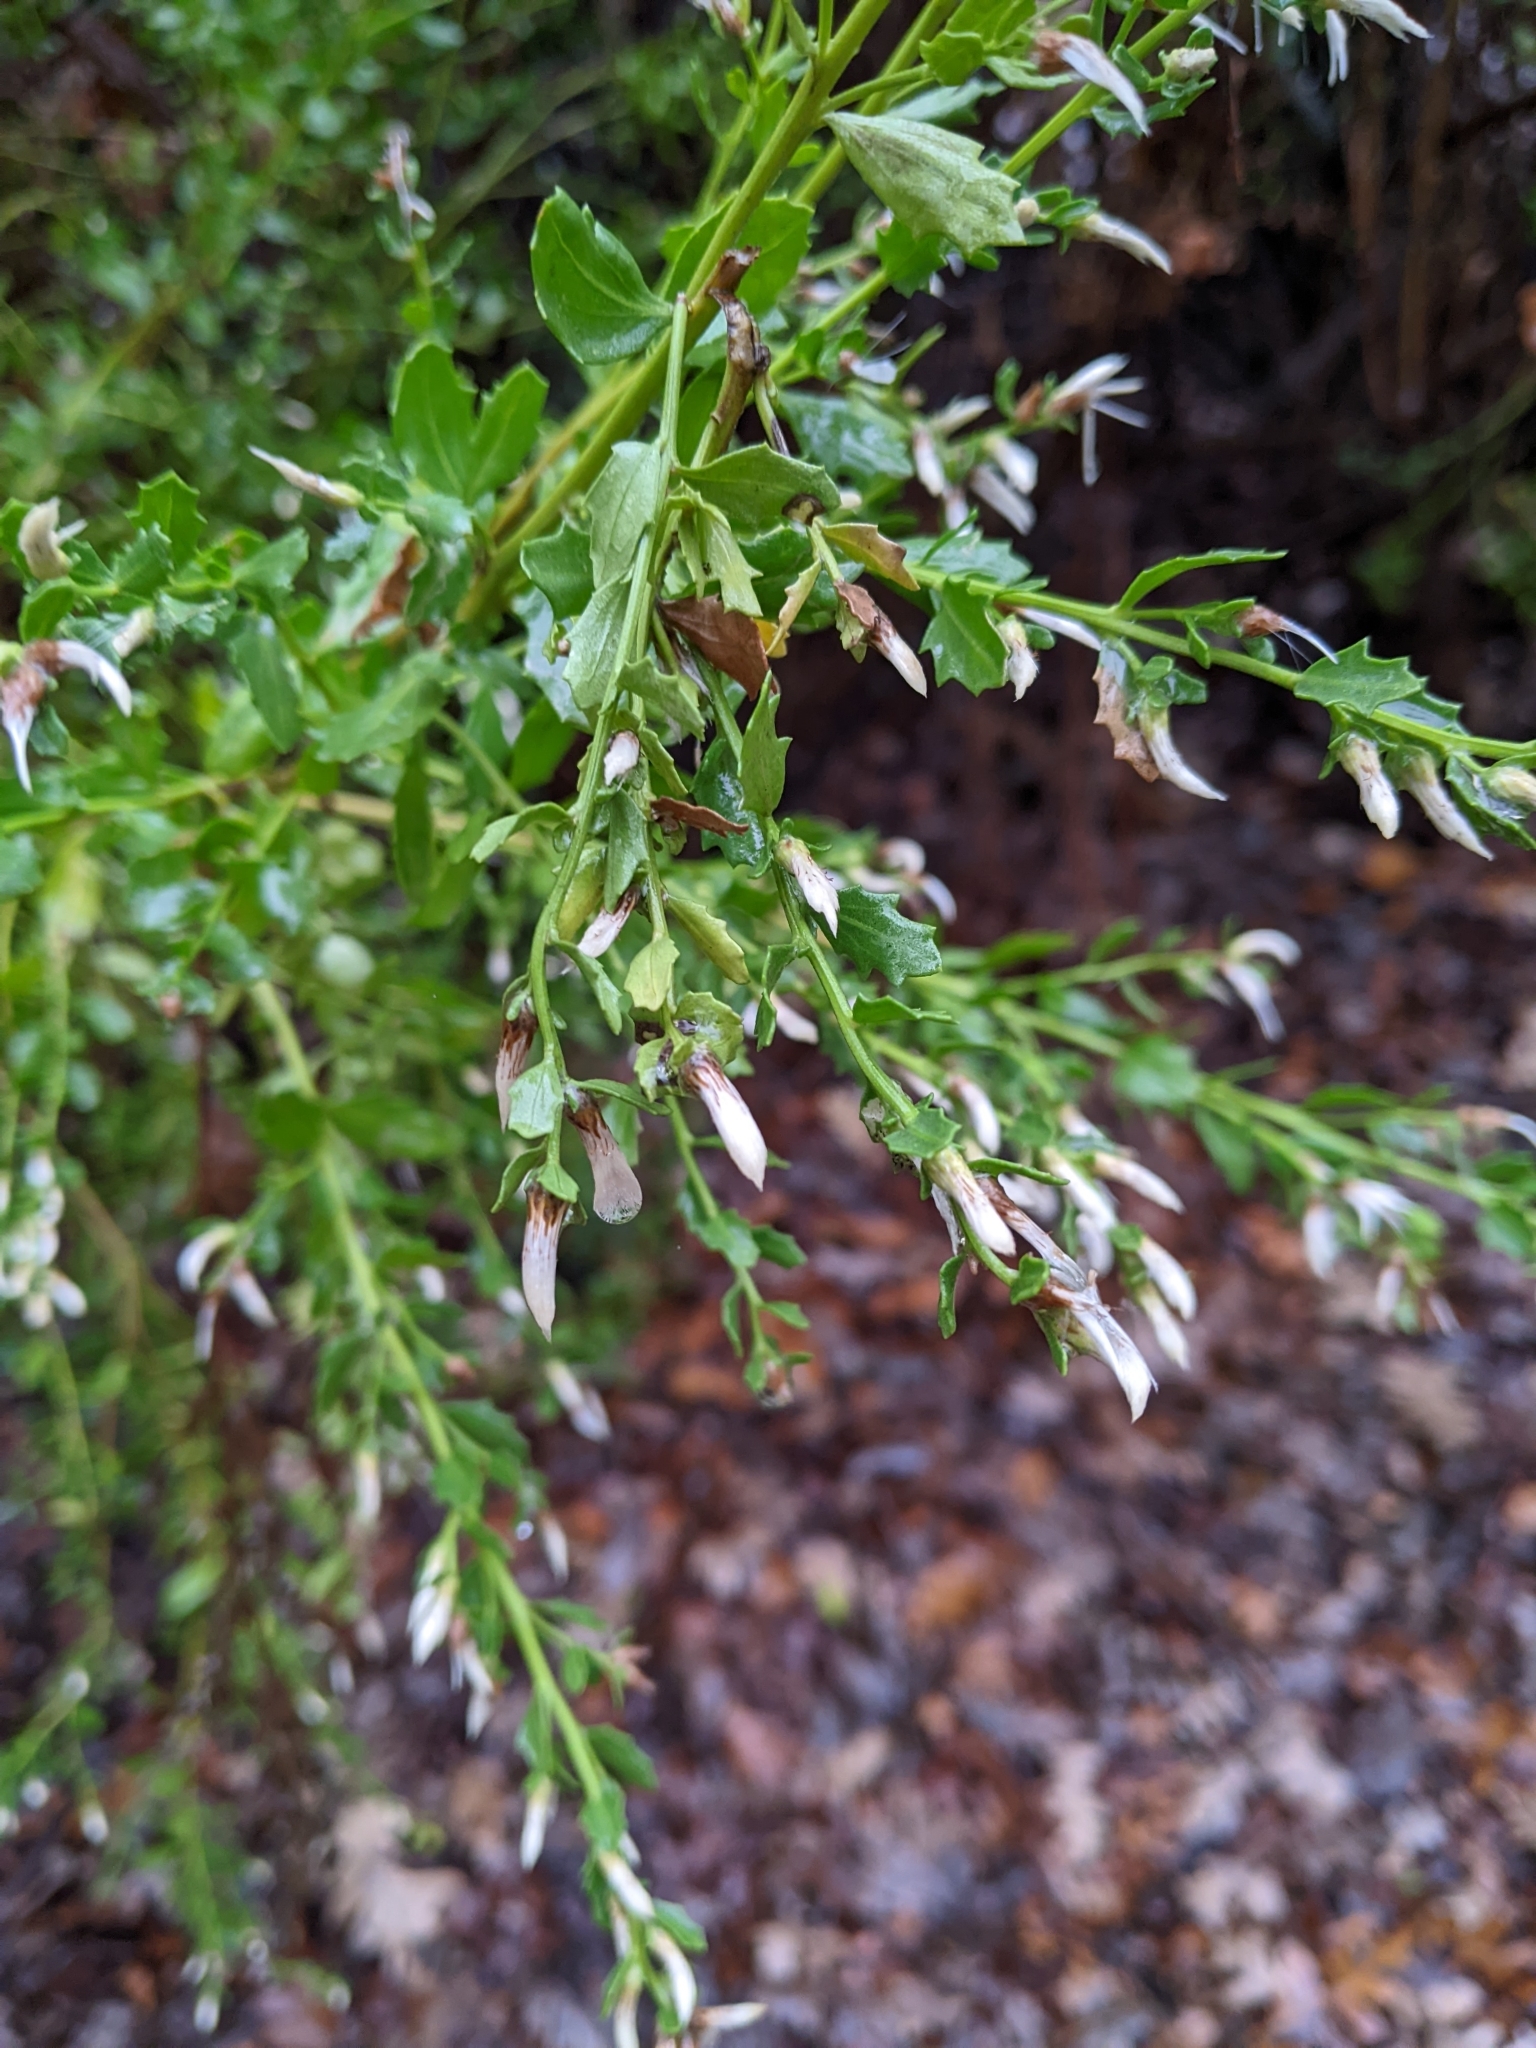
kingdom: Plantae
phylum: Tracheophyta
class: Magnoliopsida
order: Asterales
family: Asteraceae
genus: Baccharis
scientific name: Baccharis pilularis
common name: Coyotebrush
